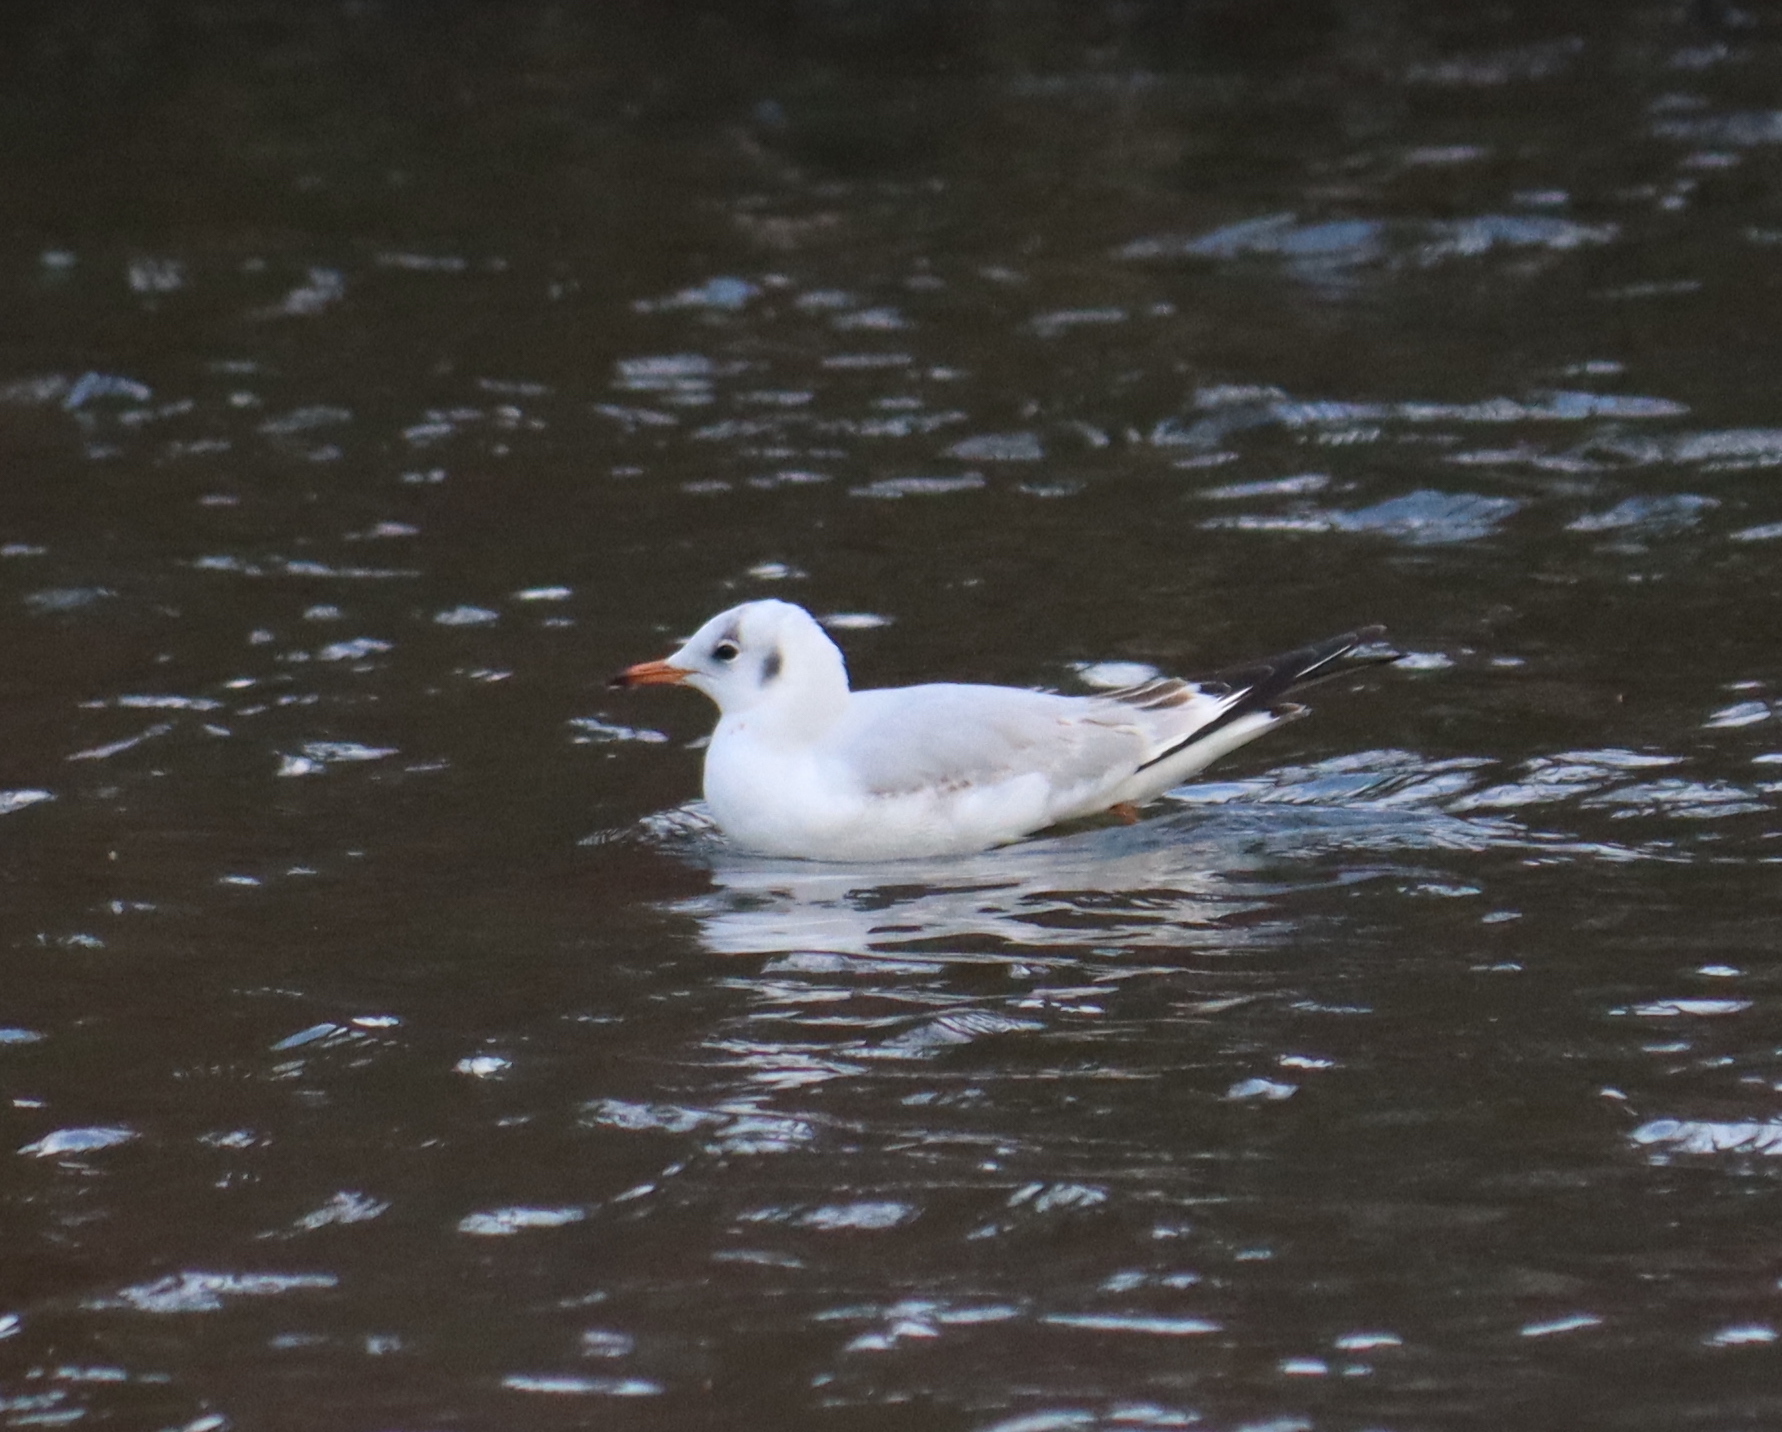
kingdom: Animalia
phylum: Chordata
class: Aves
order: Charadriiformes
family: Laridae
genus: Chroicocephalus
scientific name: Chroicocephalus ridibundus
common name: Black-headed gull
